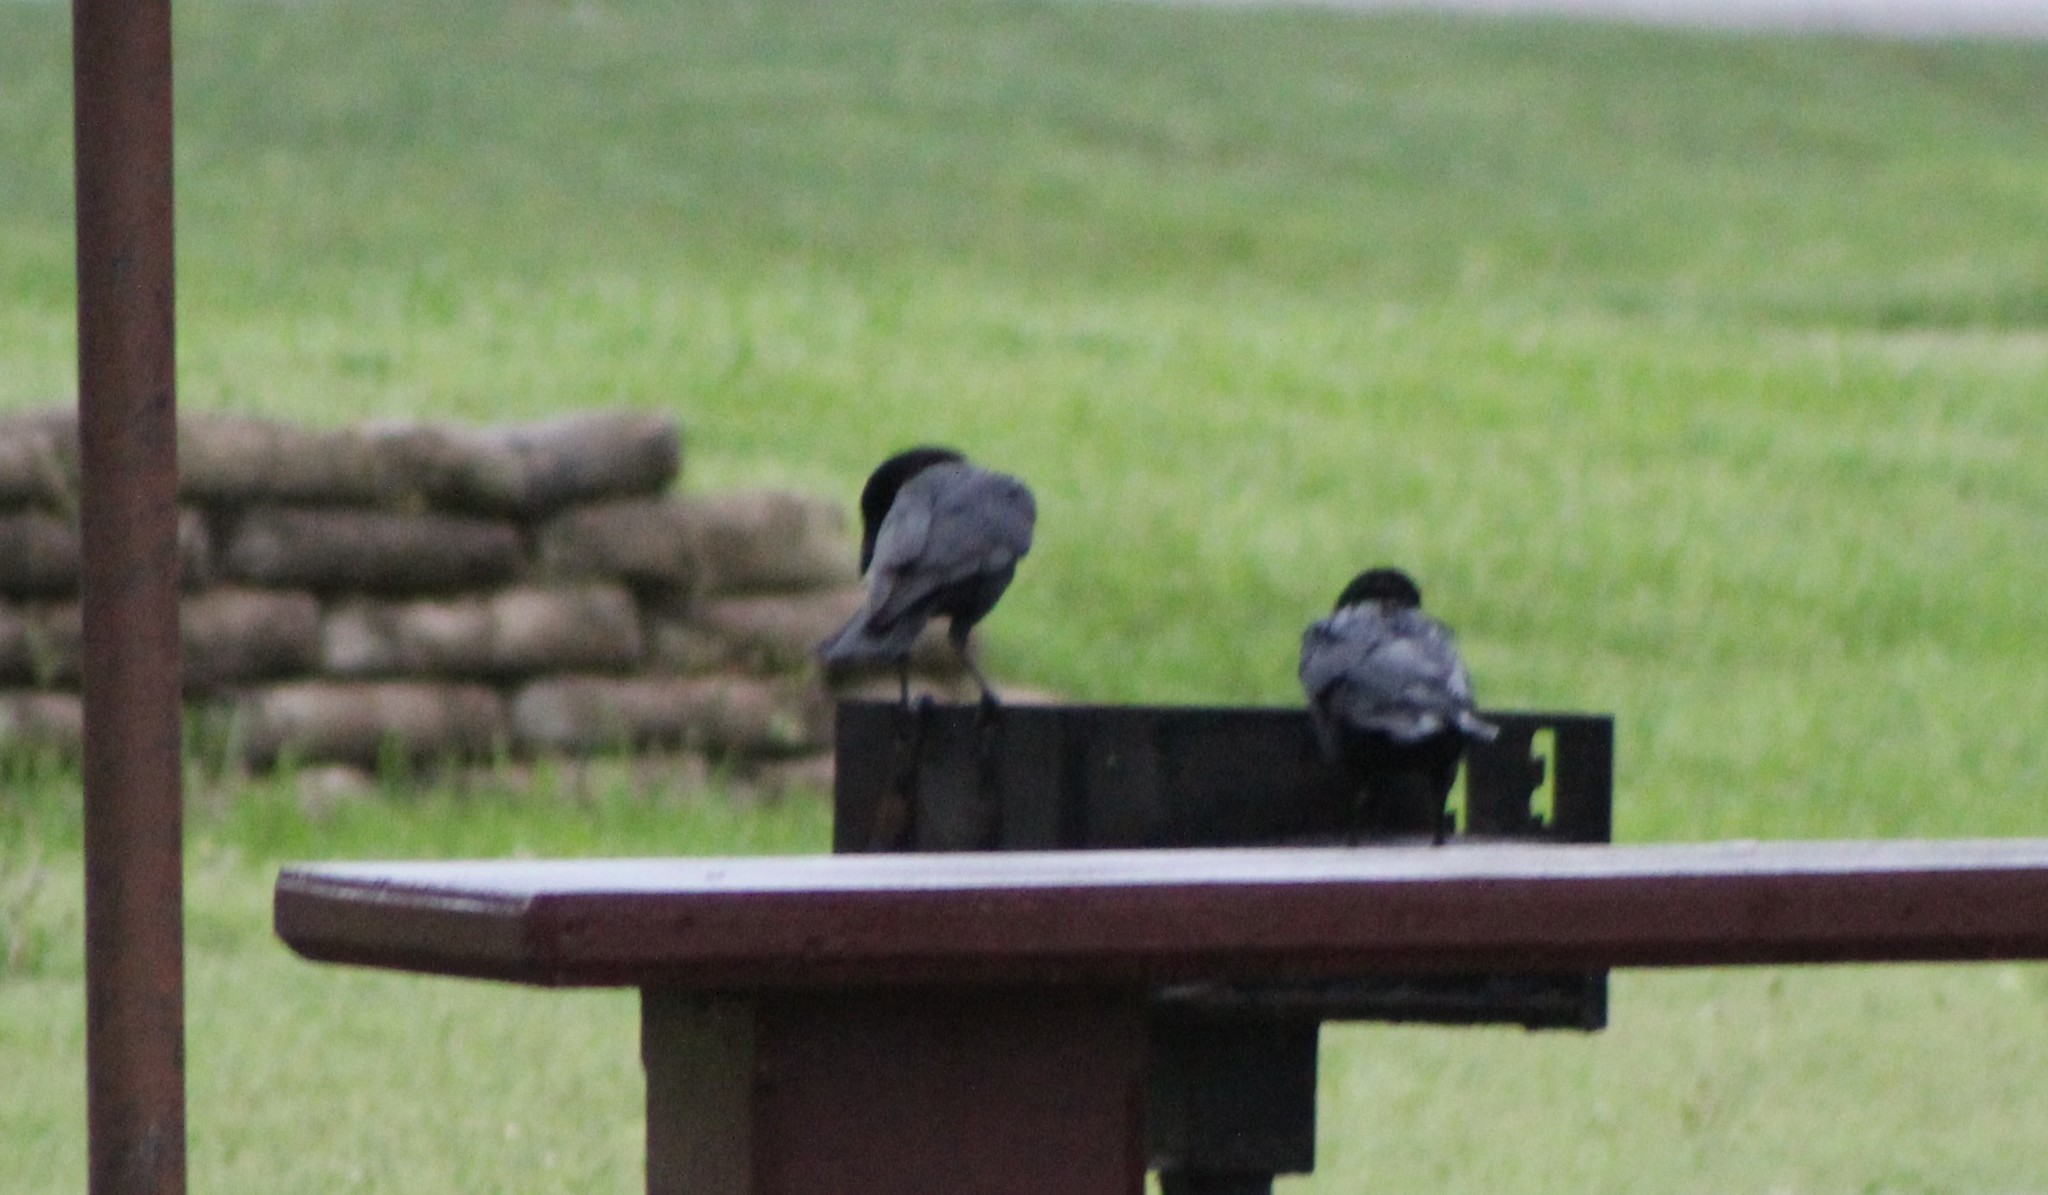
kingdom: Animalia
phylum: Chordata
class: Aves
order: Passeriformes
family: Corvidae
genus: Corvus
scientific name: Corvus brachyrhynchos
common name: American crow
